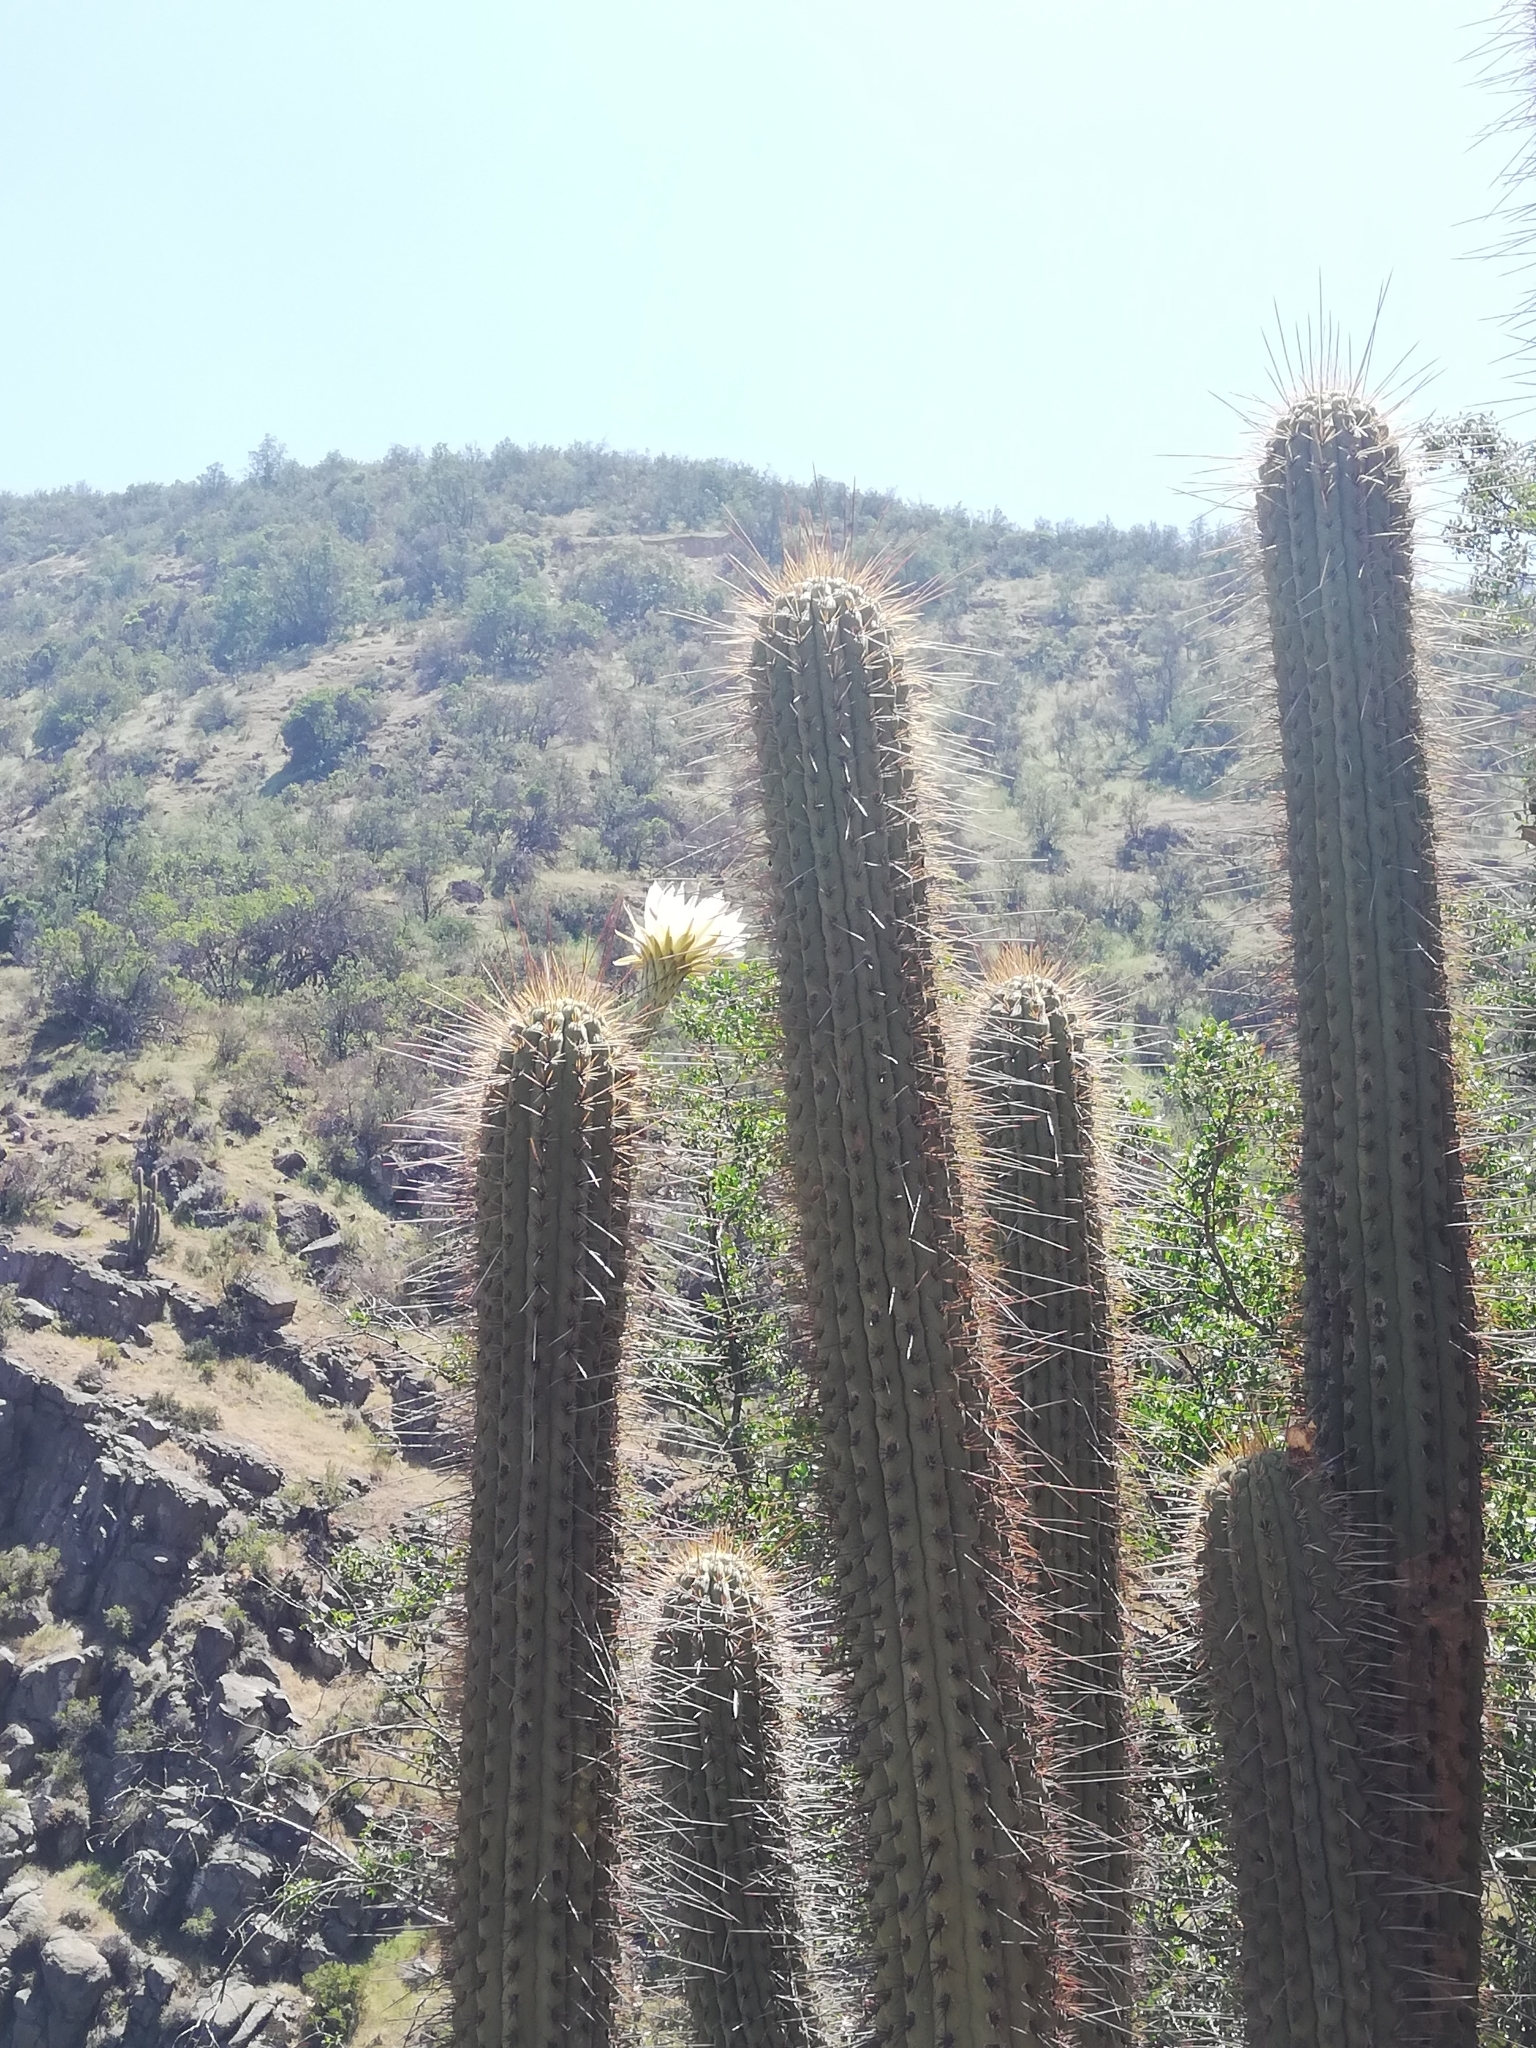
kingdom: Plantae
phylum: Tracheophyta
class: Magnoliopsida
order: Caryophyllales
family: Cactaceae
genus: Leucostele
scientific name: Leucostele chiloensis
